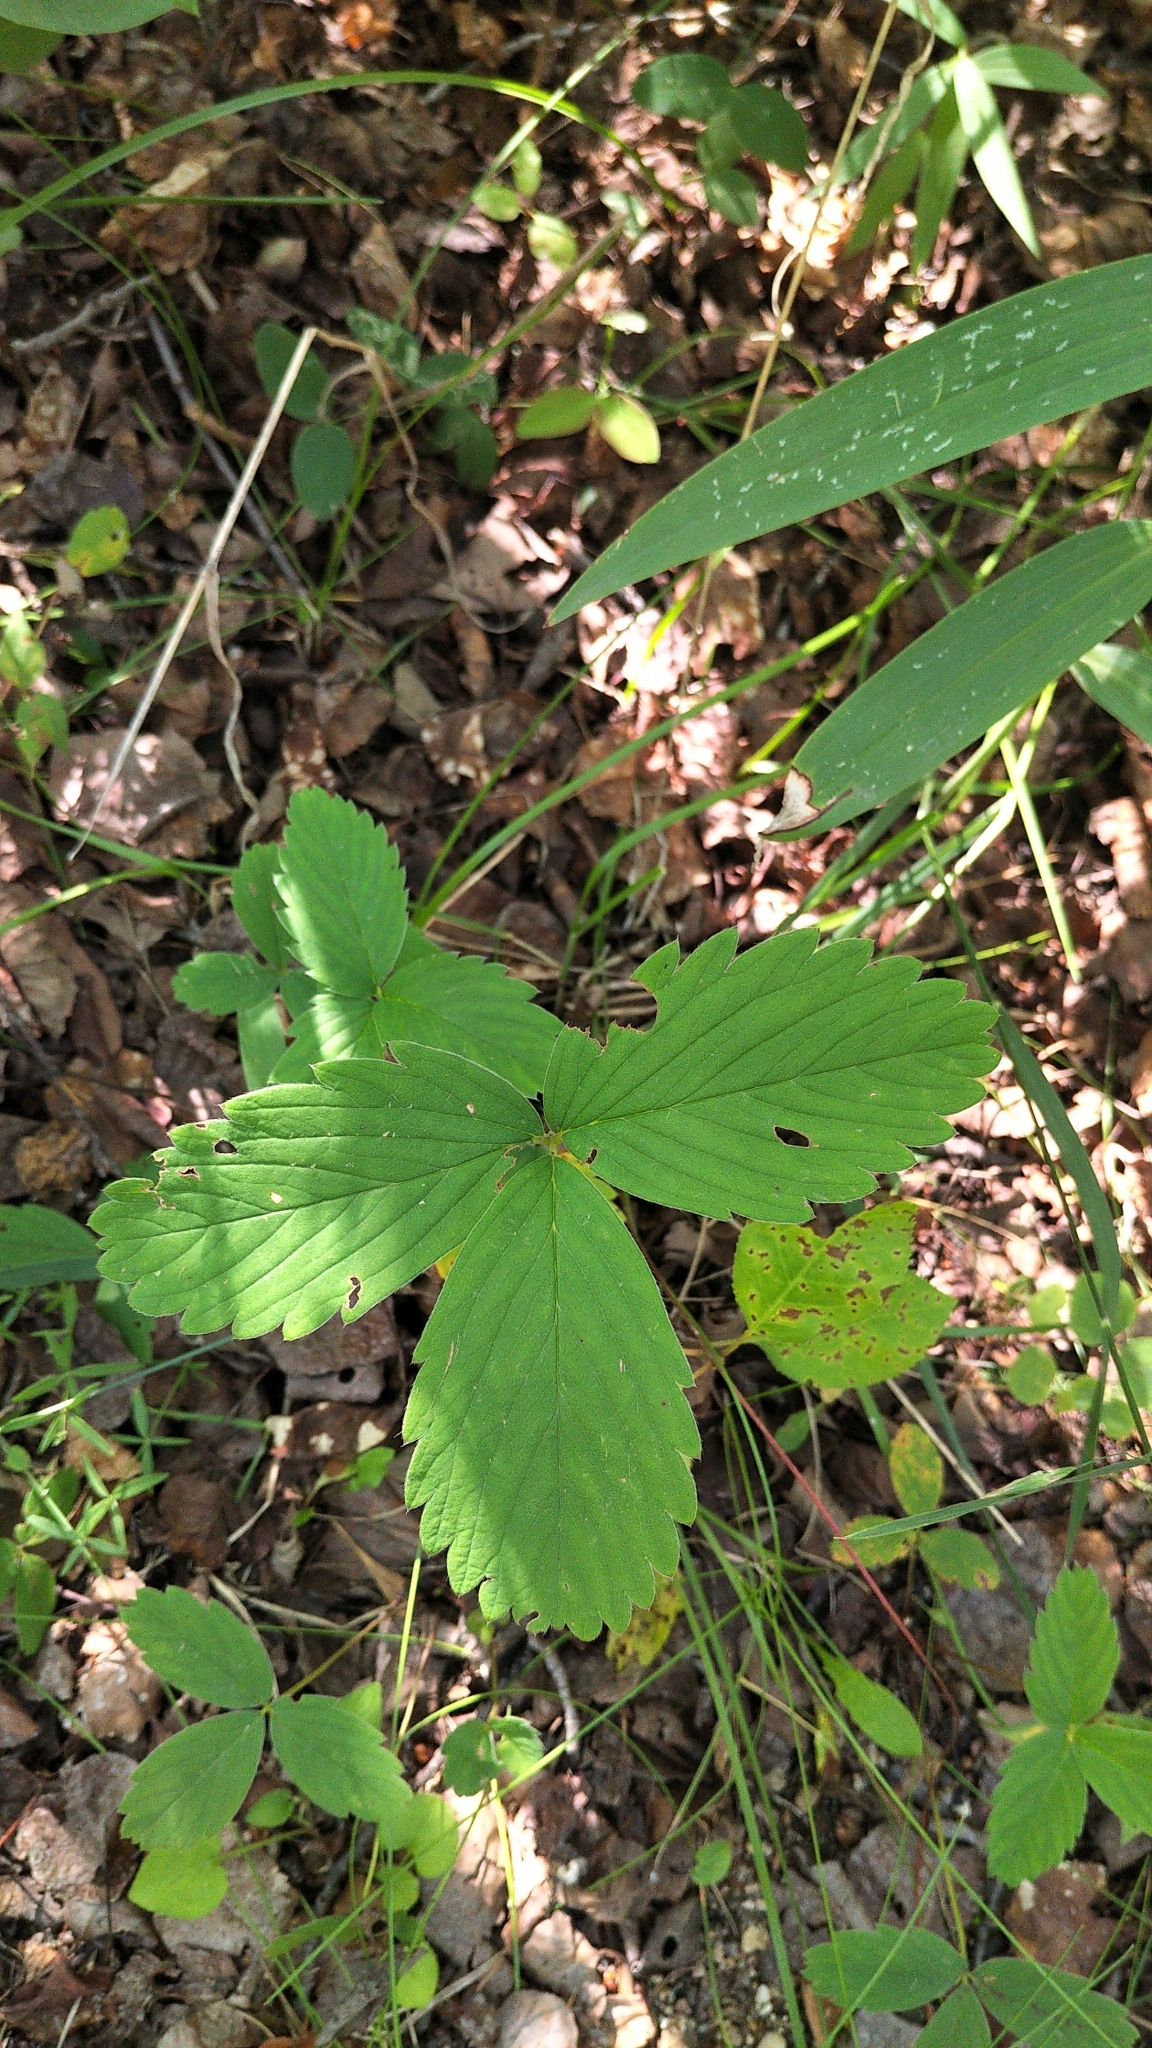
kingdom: Plantae
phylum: Tracheophyta
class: Magnoliopsida
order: Rosales
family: Rosaceae
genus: Fragaria
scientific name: Fragaria virginiana
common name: Thickleaved wild strawberry
